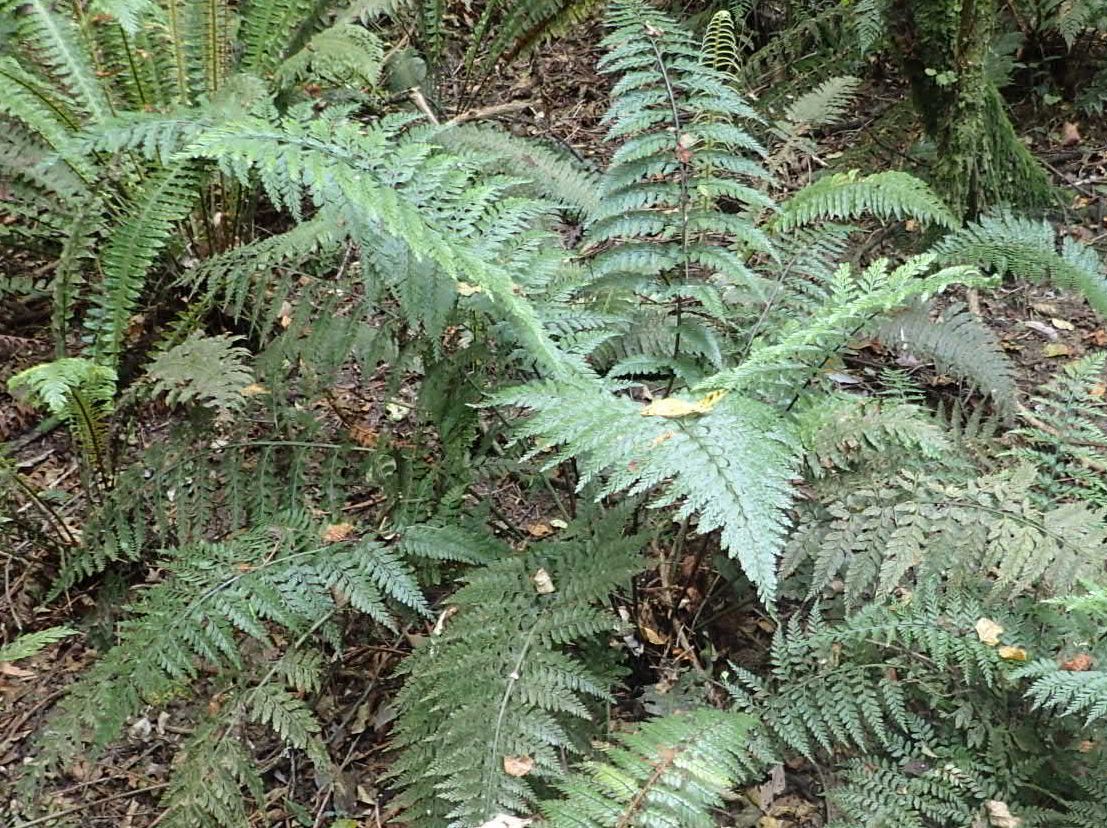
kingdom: Plantae
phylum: Tracheophyta
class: Polypodiopsida
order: Polypodiales
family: Aspleniaceae
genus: Asplenium
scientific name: Asplenium
